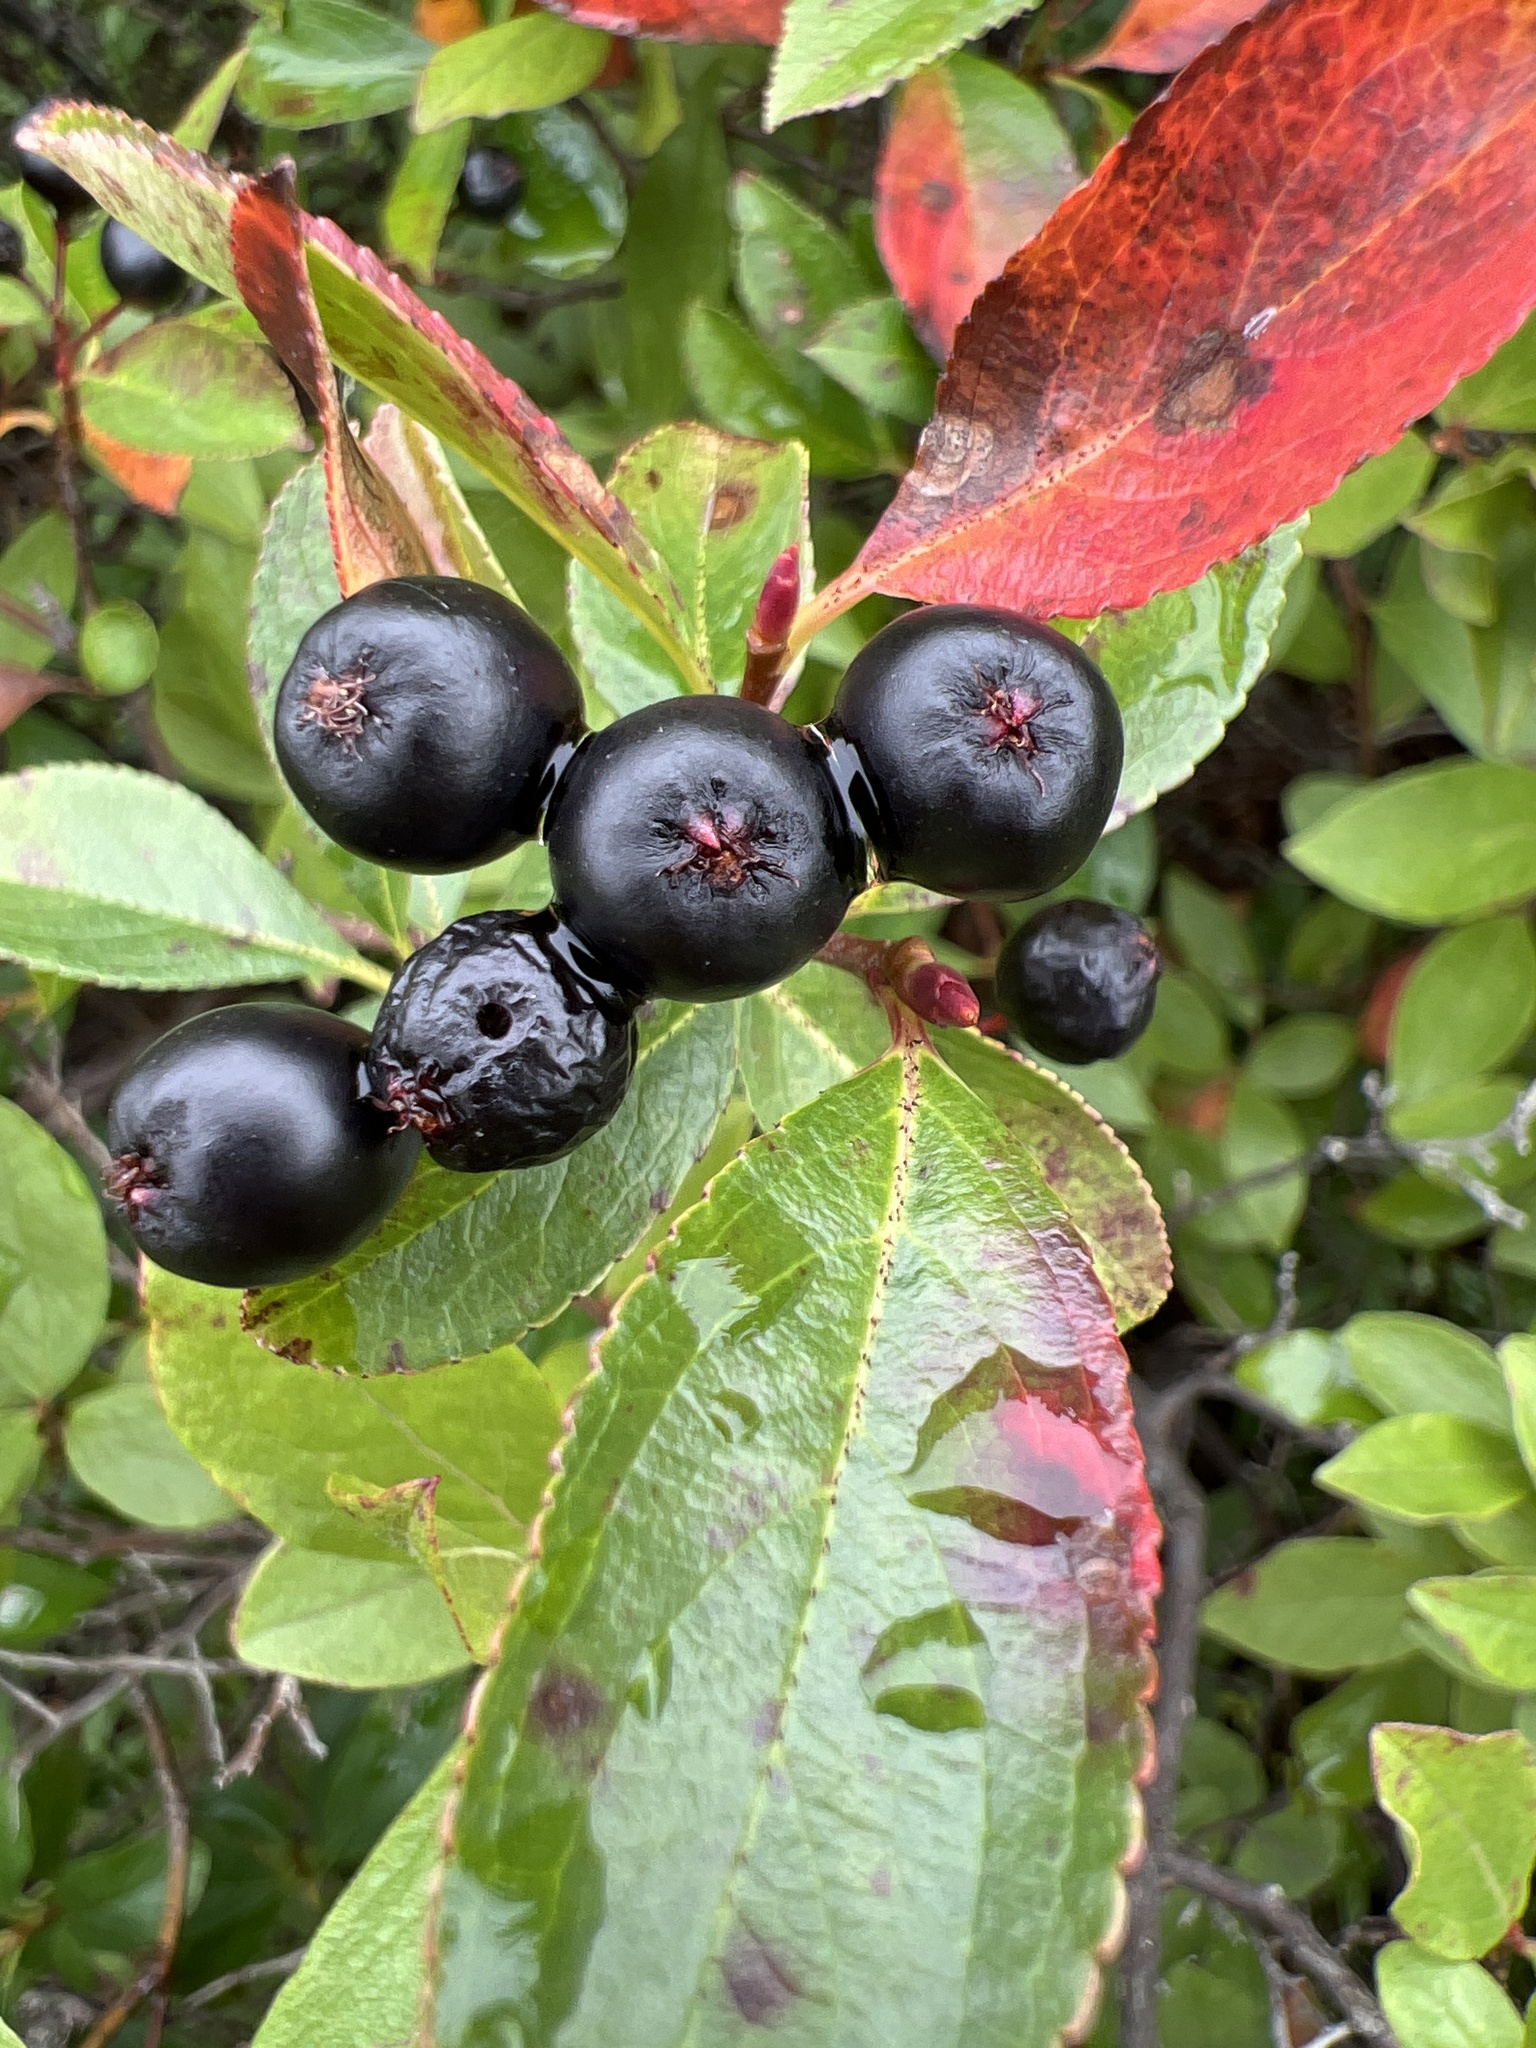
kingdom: Plantae
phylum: Tracheophyta
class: Magnoliopsida
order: Rosales
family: Rosaceae
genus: Aronia
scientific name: Aronia melanocarpa
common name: Black chokeberry
